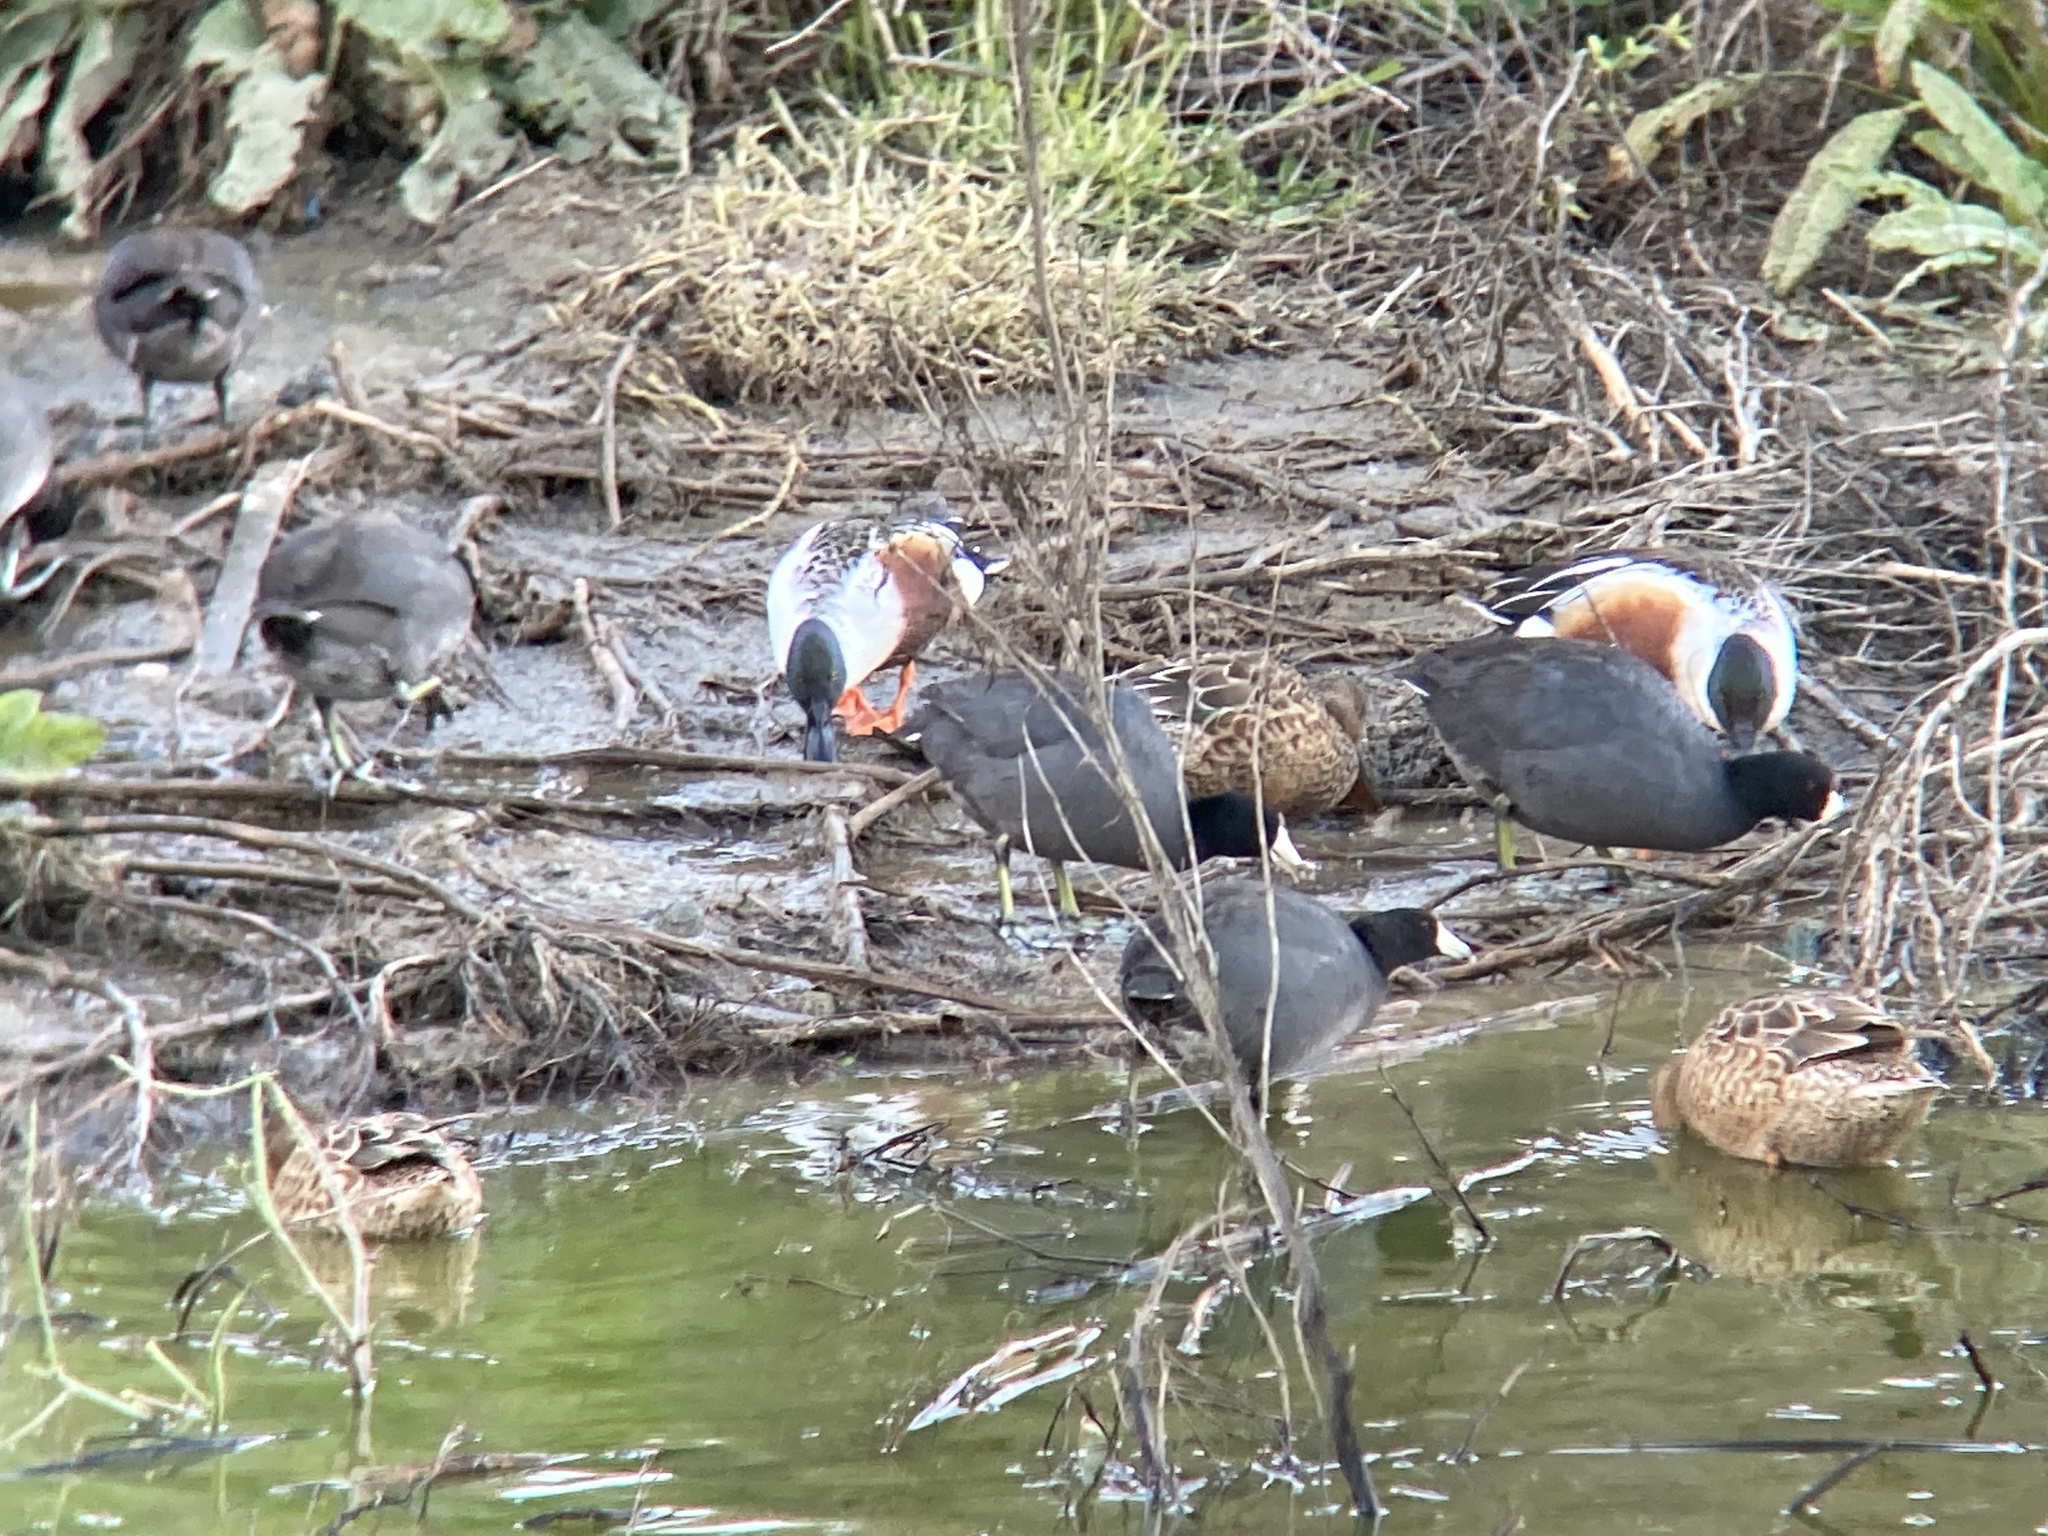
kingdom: Animalia
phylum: Chordata
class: Aves
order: Gruiformes
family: Rallidae
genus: Fulica
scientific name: Fulica americana
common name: American coot
